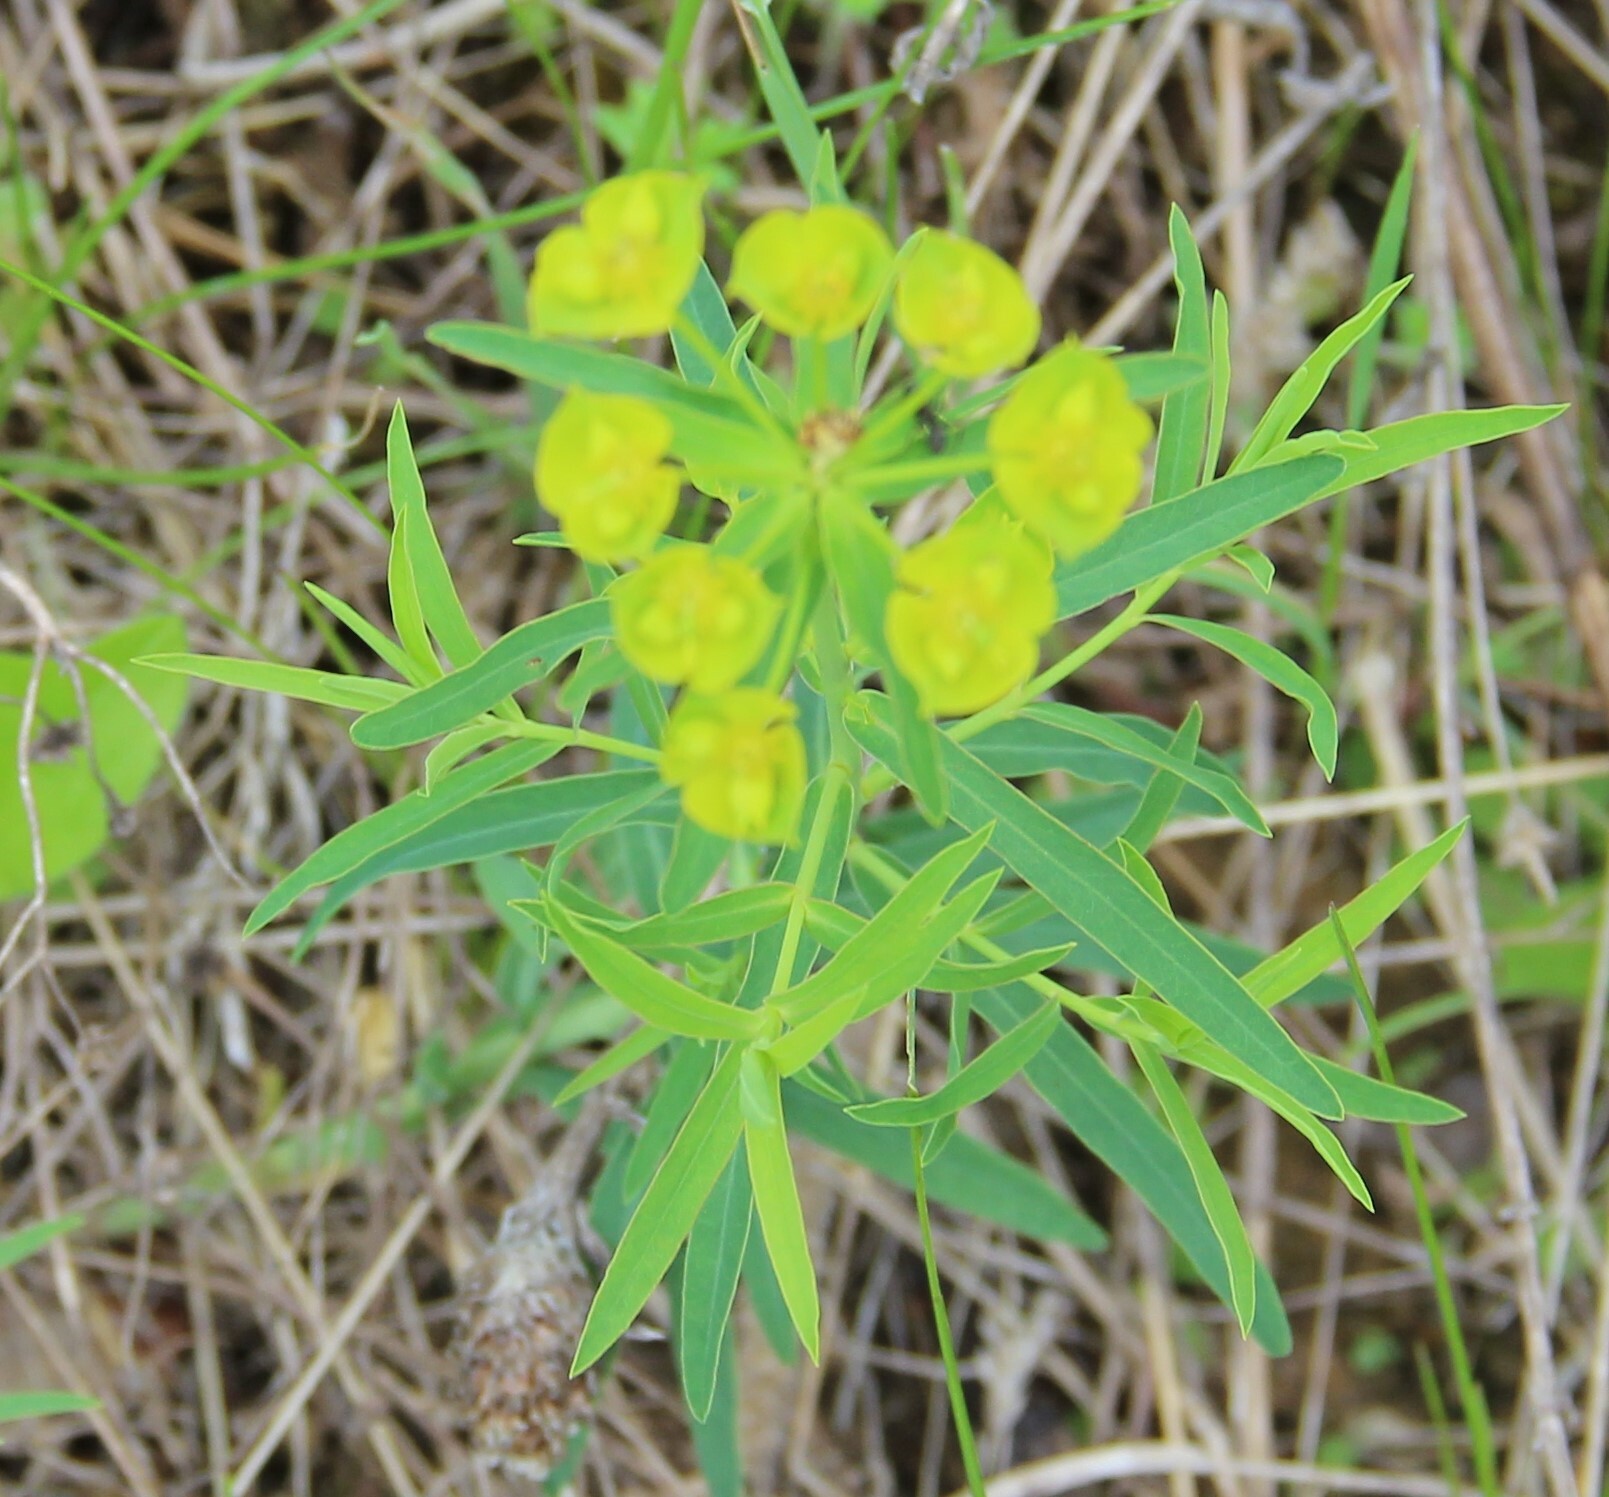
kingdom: Plantae
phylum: Tracheophyta
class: Magnoliopsida
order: Malpighiales
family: Euphorbiaceae
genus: Euphorbia
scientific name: Euphorbia virgata
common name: Leafy spurge
